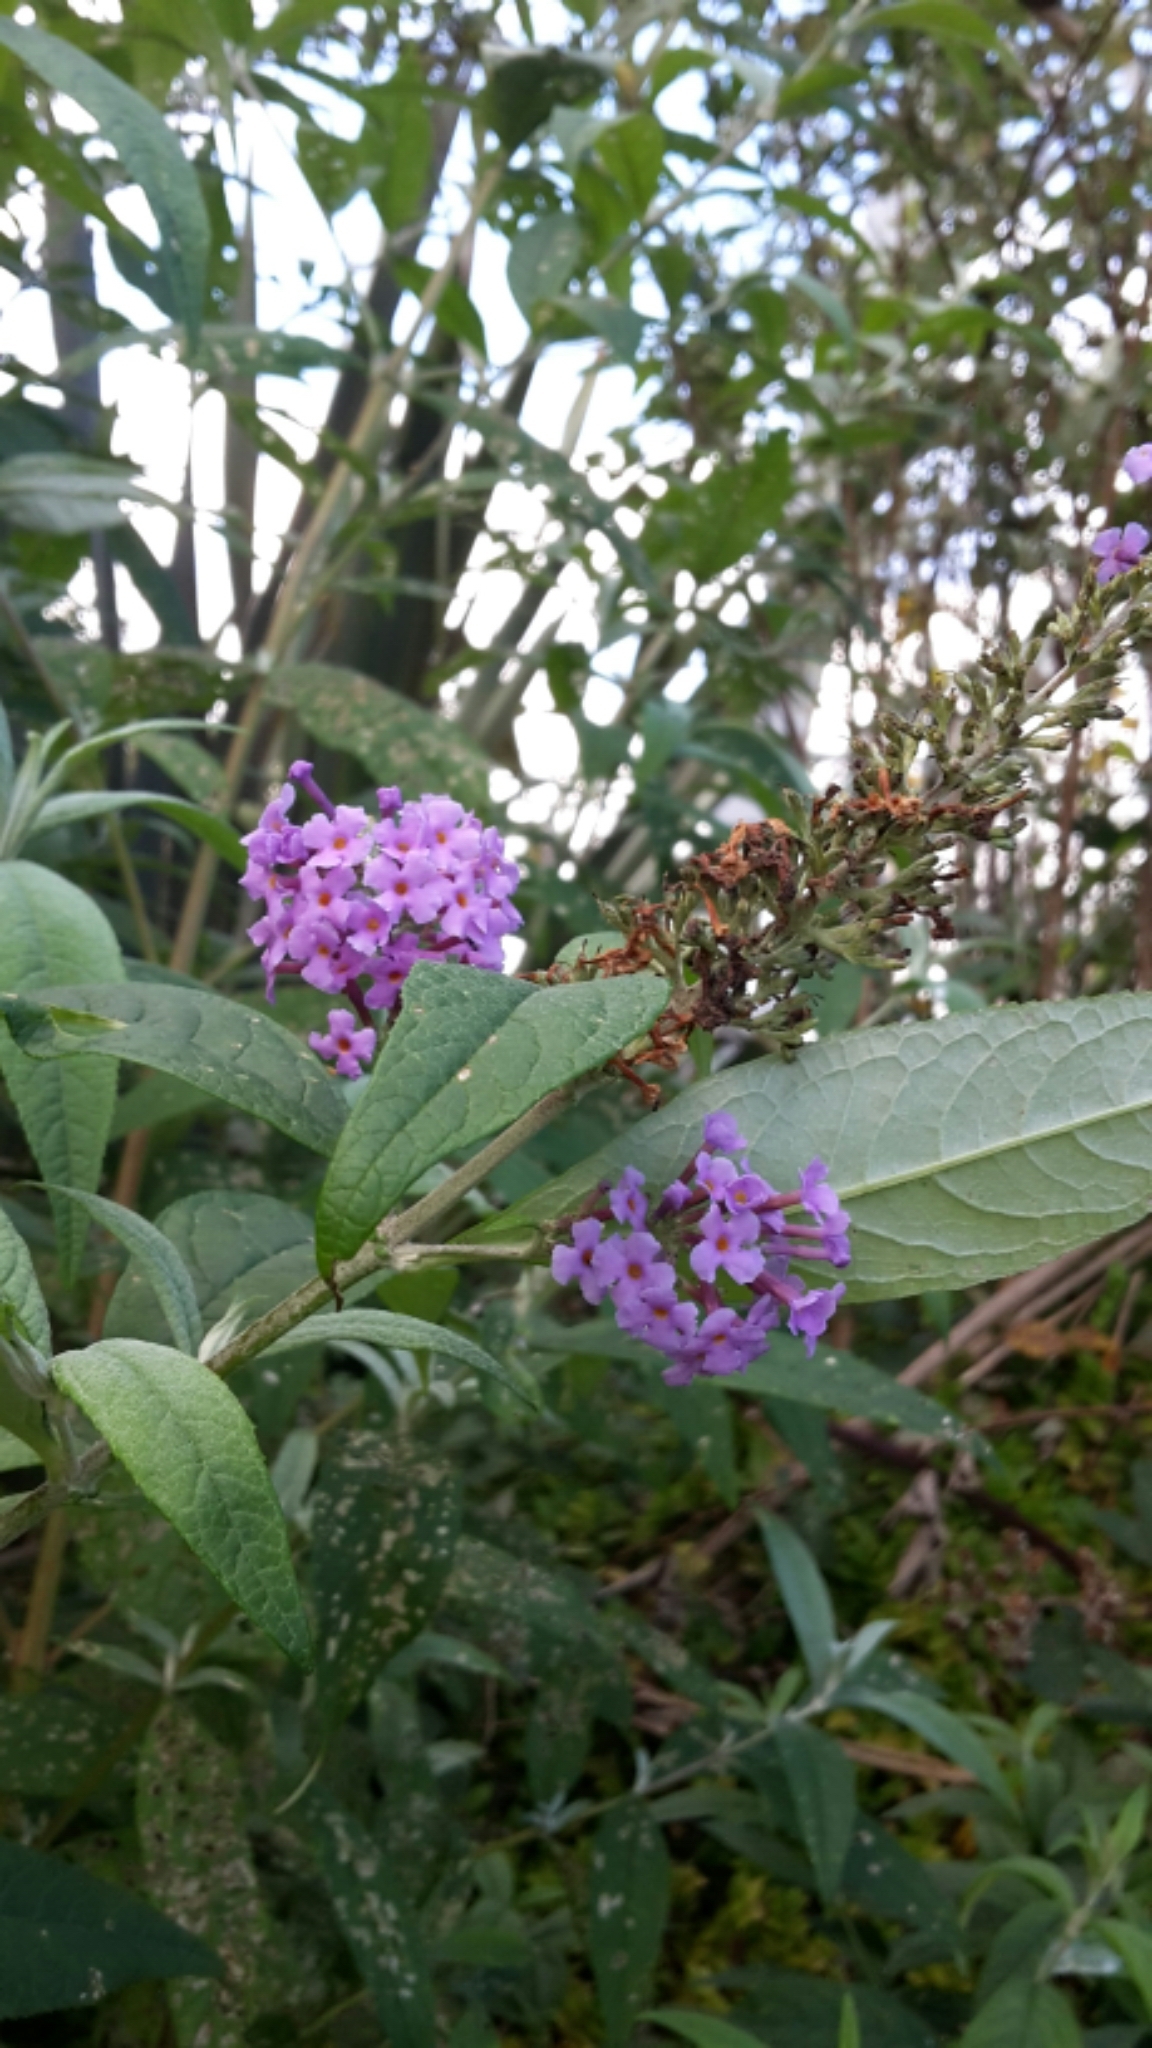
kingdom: Plantae
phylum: Tracheophyta
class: Magnoliopsida
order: Lamiales
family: Scrophulariaceae
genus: Buddleja
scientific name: Buddleja davidii
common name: Butterfly-bush
